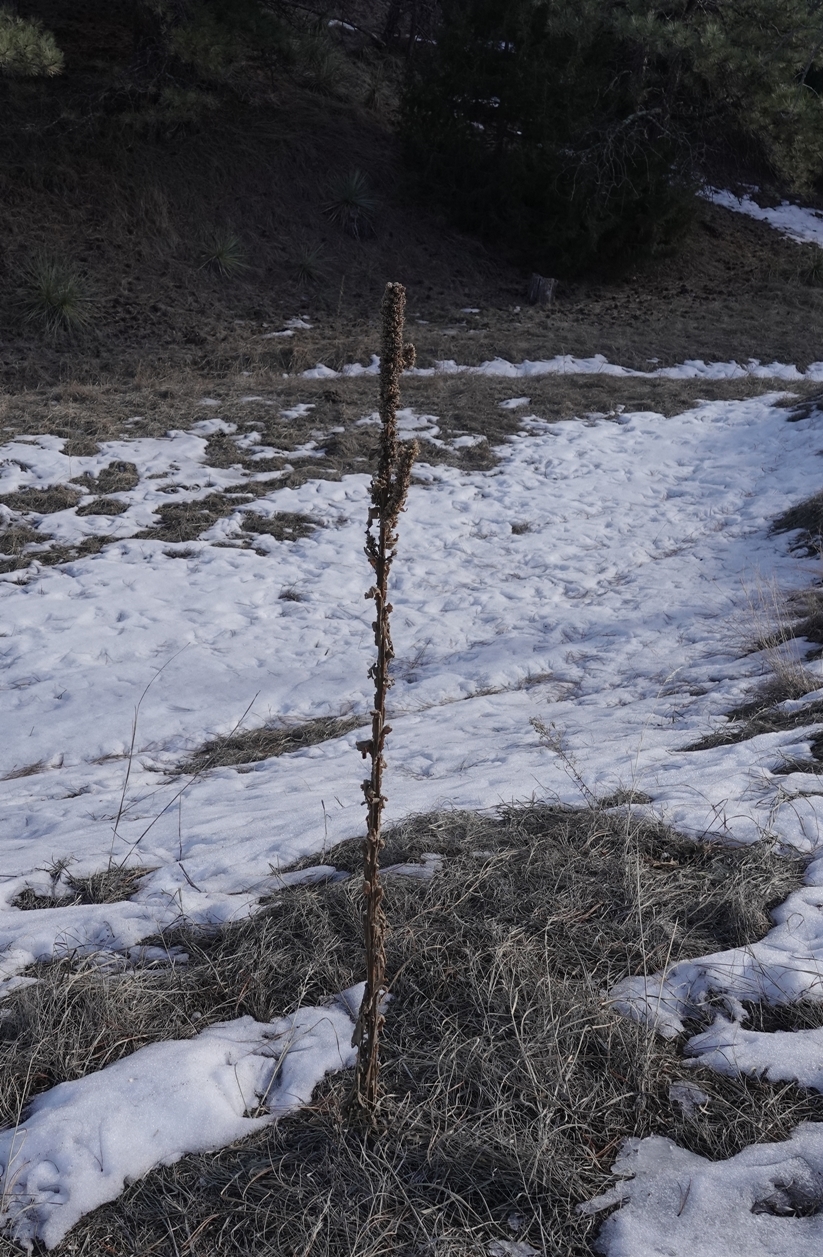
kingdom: Plantae
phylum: Tracheophyta
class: Magnoliopsida
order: Lamiales
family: Scrophulariaceae
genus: Verbascum
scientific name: Verbascum thapsus
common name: Common mullein
